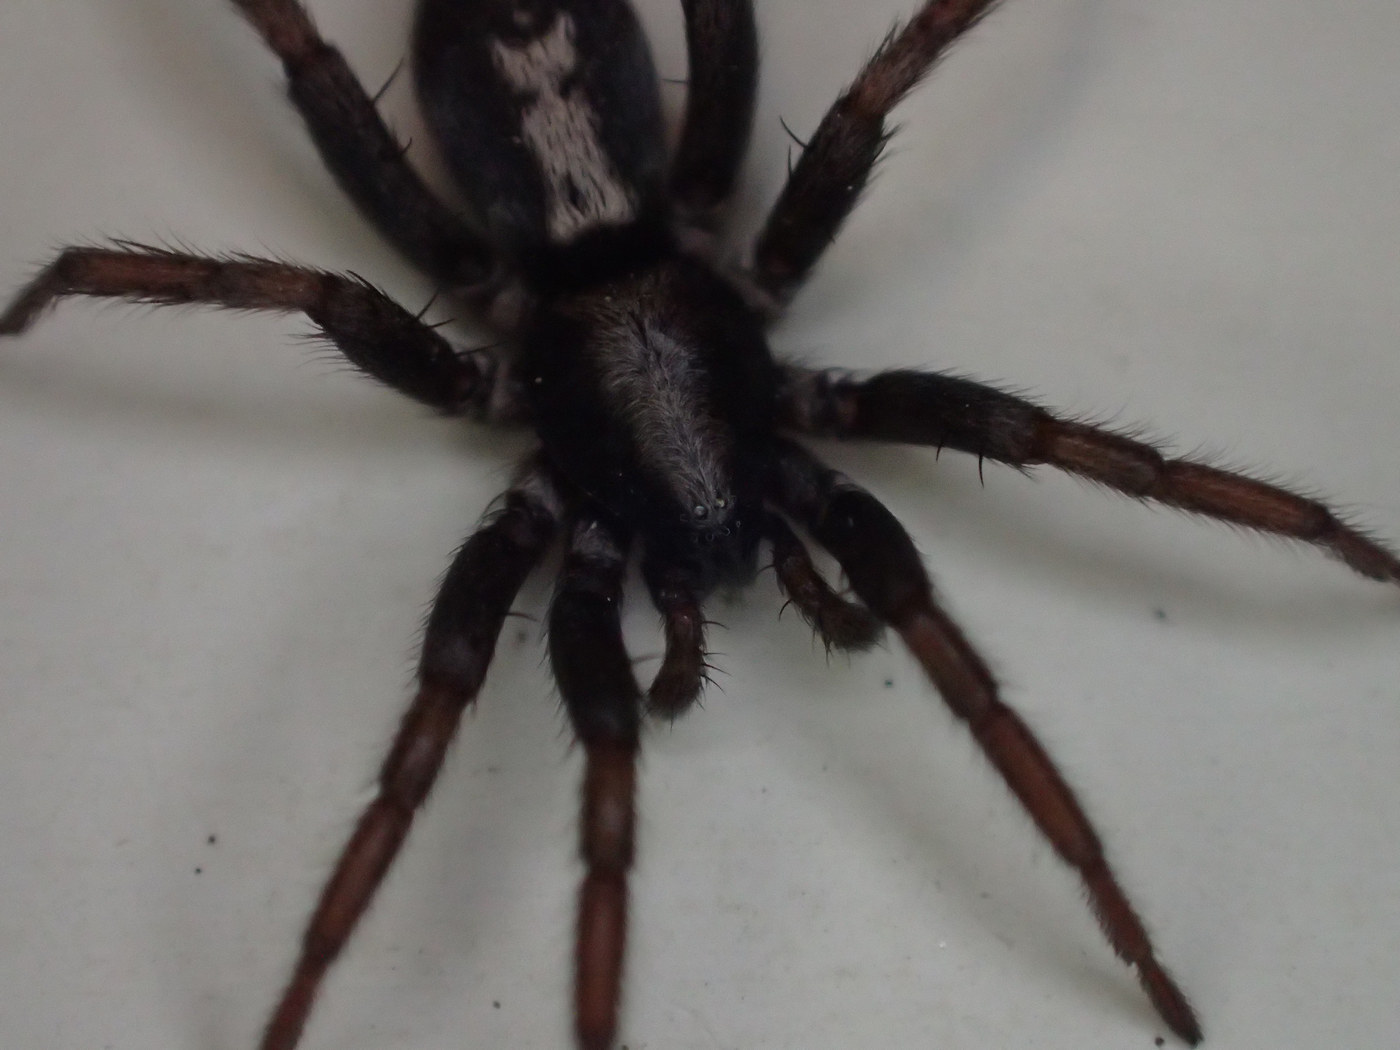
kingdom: Animalia
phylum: Arthropoda
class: Arachnida
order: Araneae
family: Gnaphosidae
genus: Herpyllus
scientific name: Herpyllus ecclesiasticus
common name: Eastern parson spider
